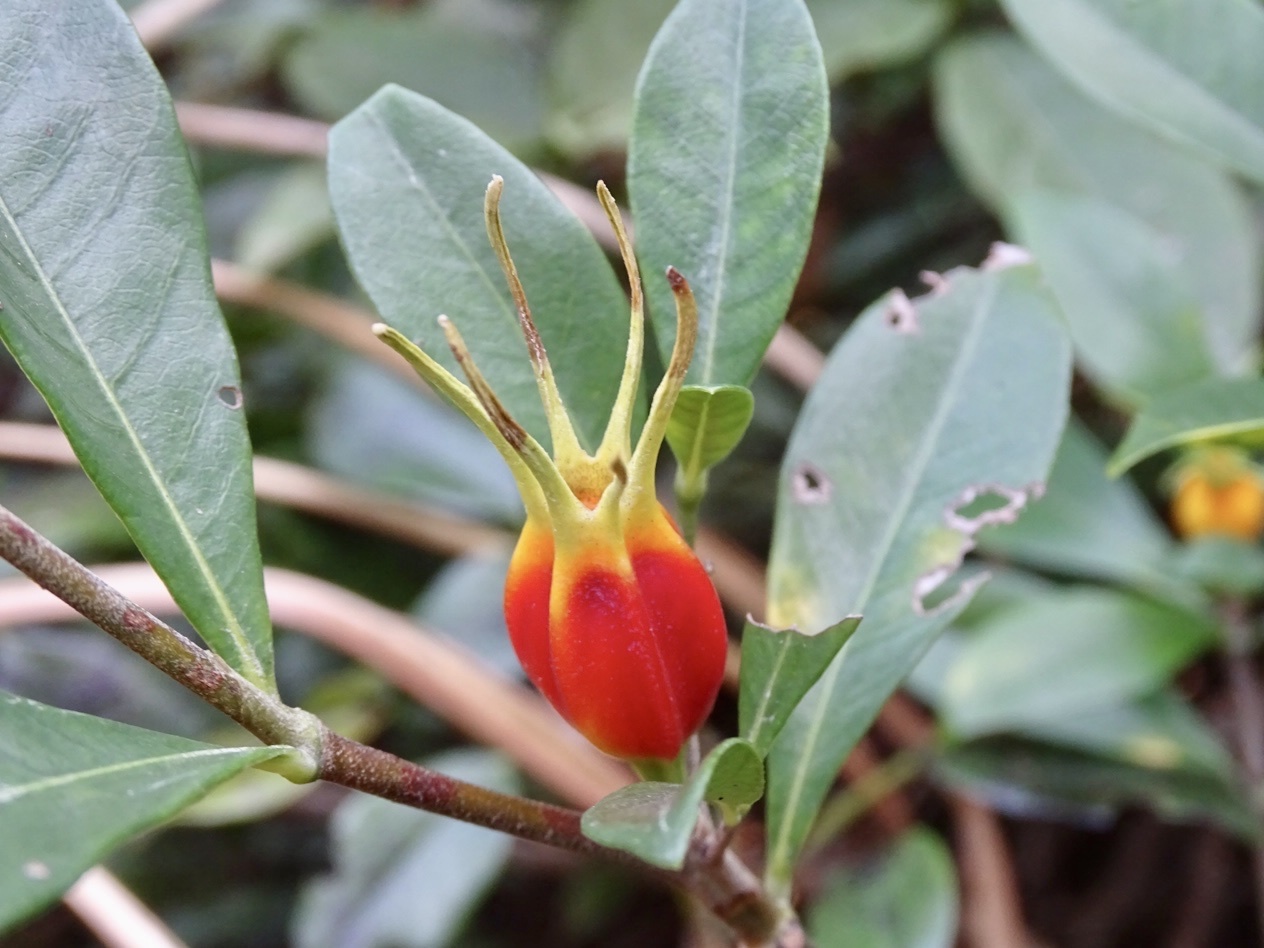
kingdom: Plantae
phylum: Tracheophyta
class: Magnoliopsida
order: Gentianales
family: Rubiaceae
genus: Gardenia
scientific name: Gardenia jasminoides
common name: Cape-jasmine
